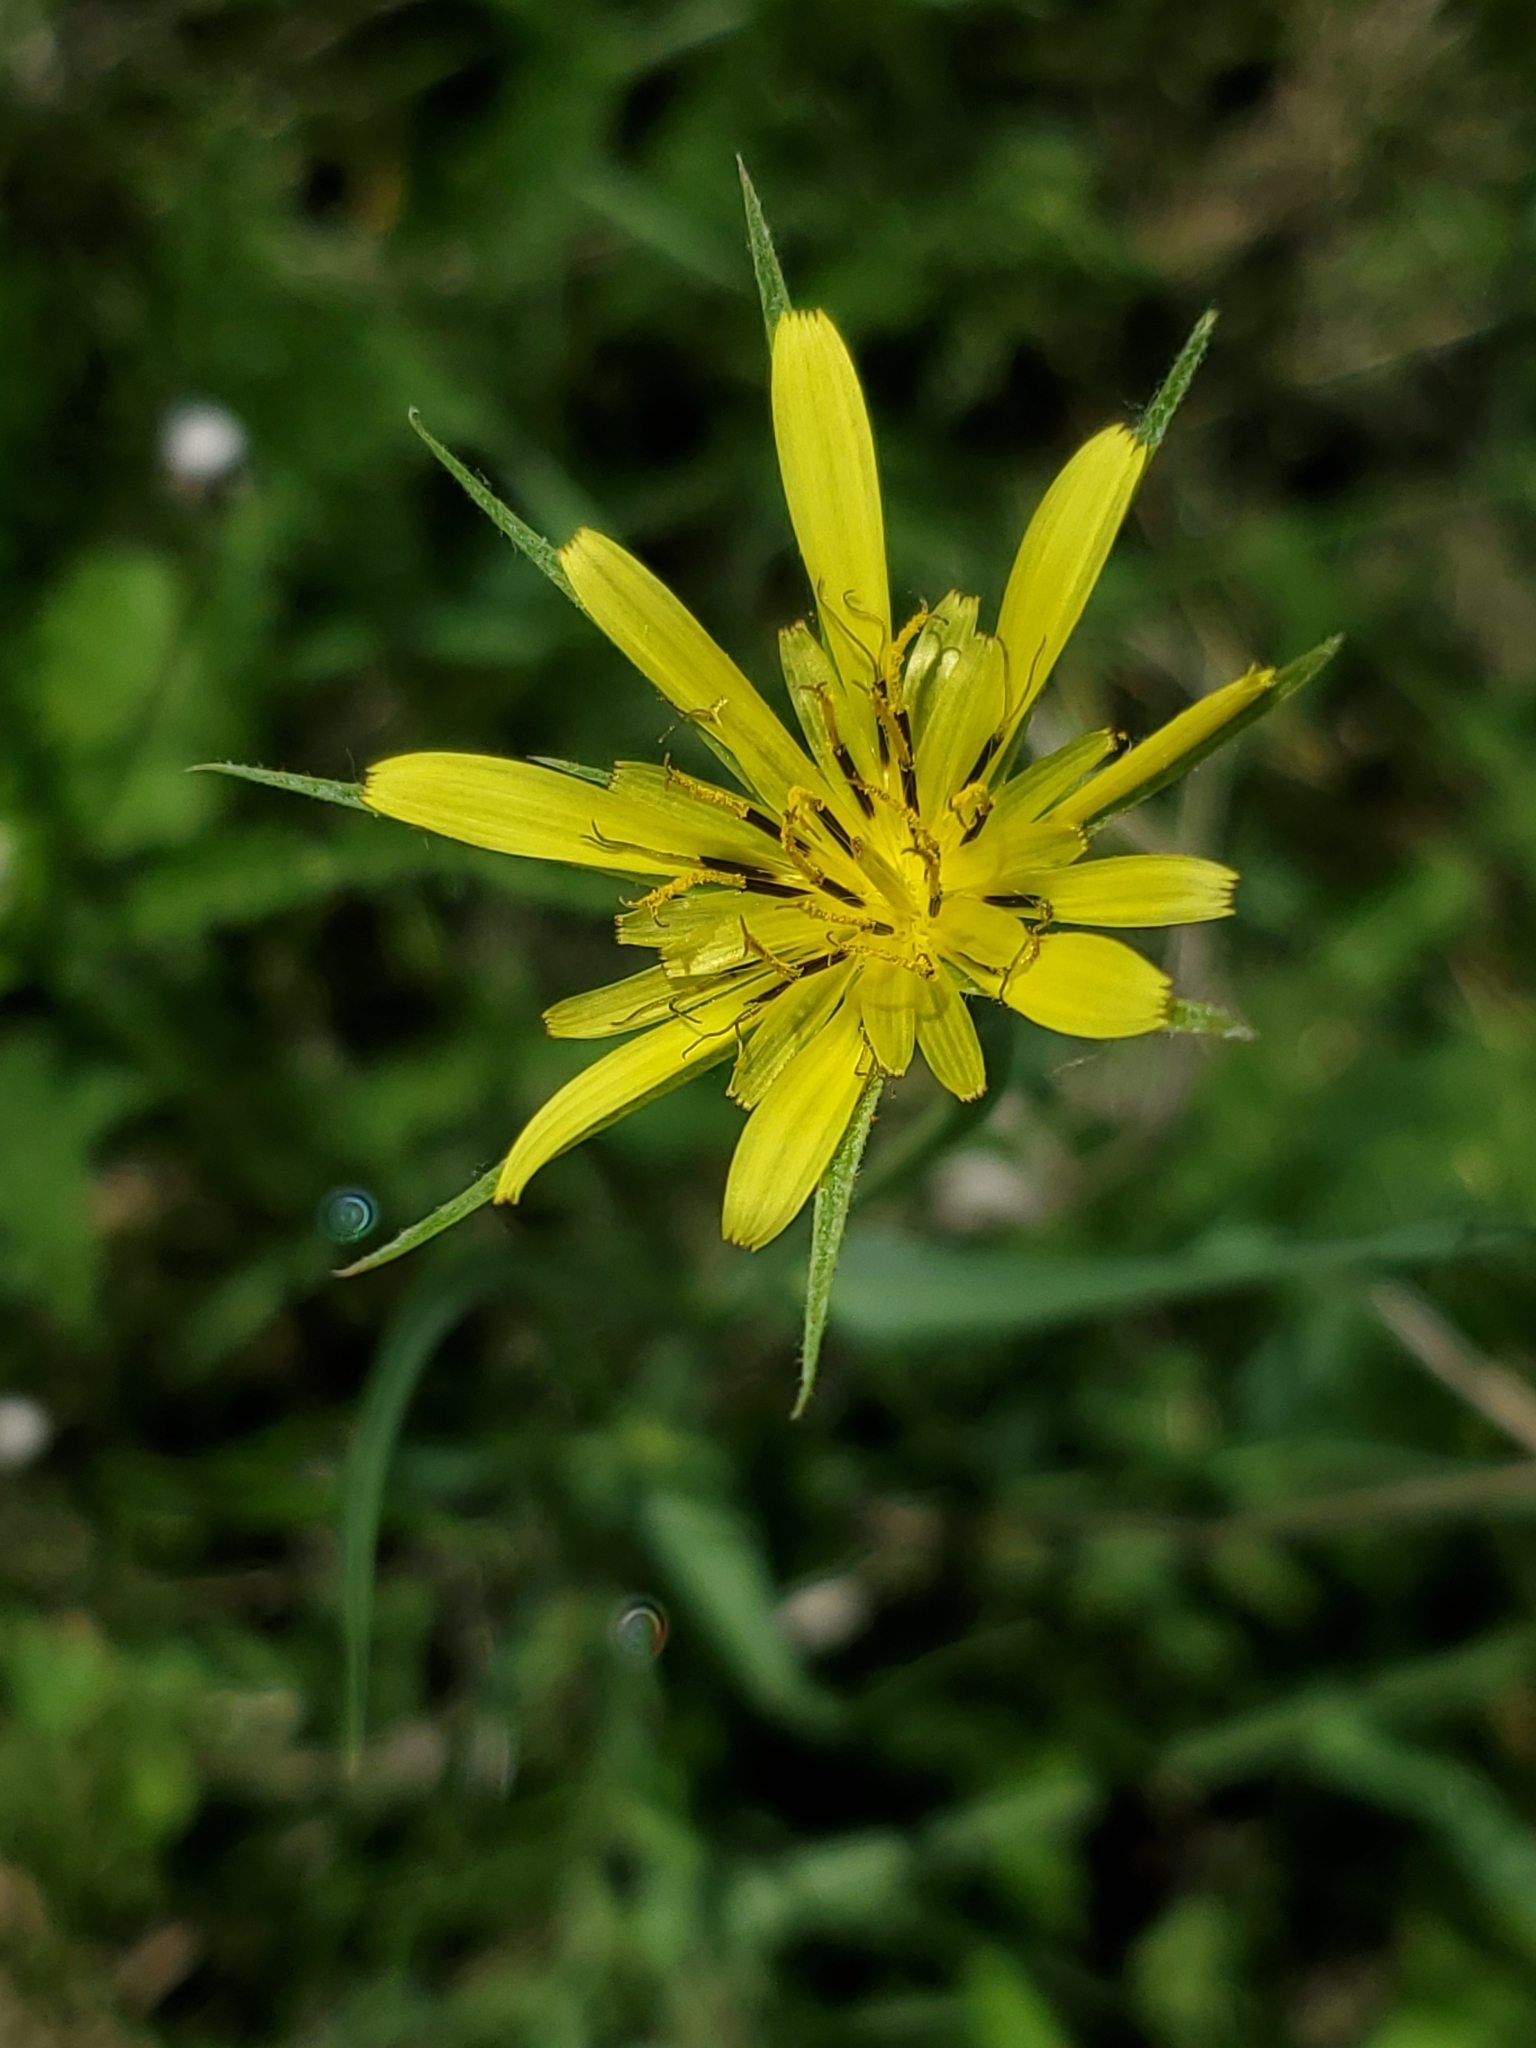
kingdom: Plantae
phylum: Tracheophyta
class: Magnoliopsida
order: Asterales
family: Asteraceae
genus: Tragopogon
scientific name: Tragopogon dubius
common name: Yellow salsify
